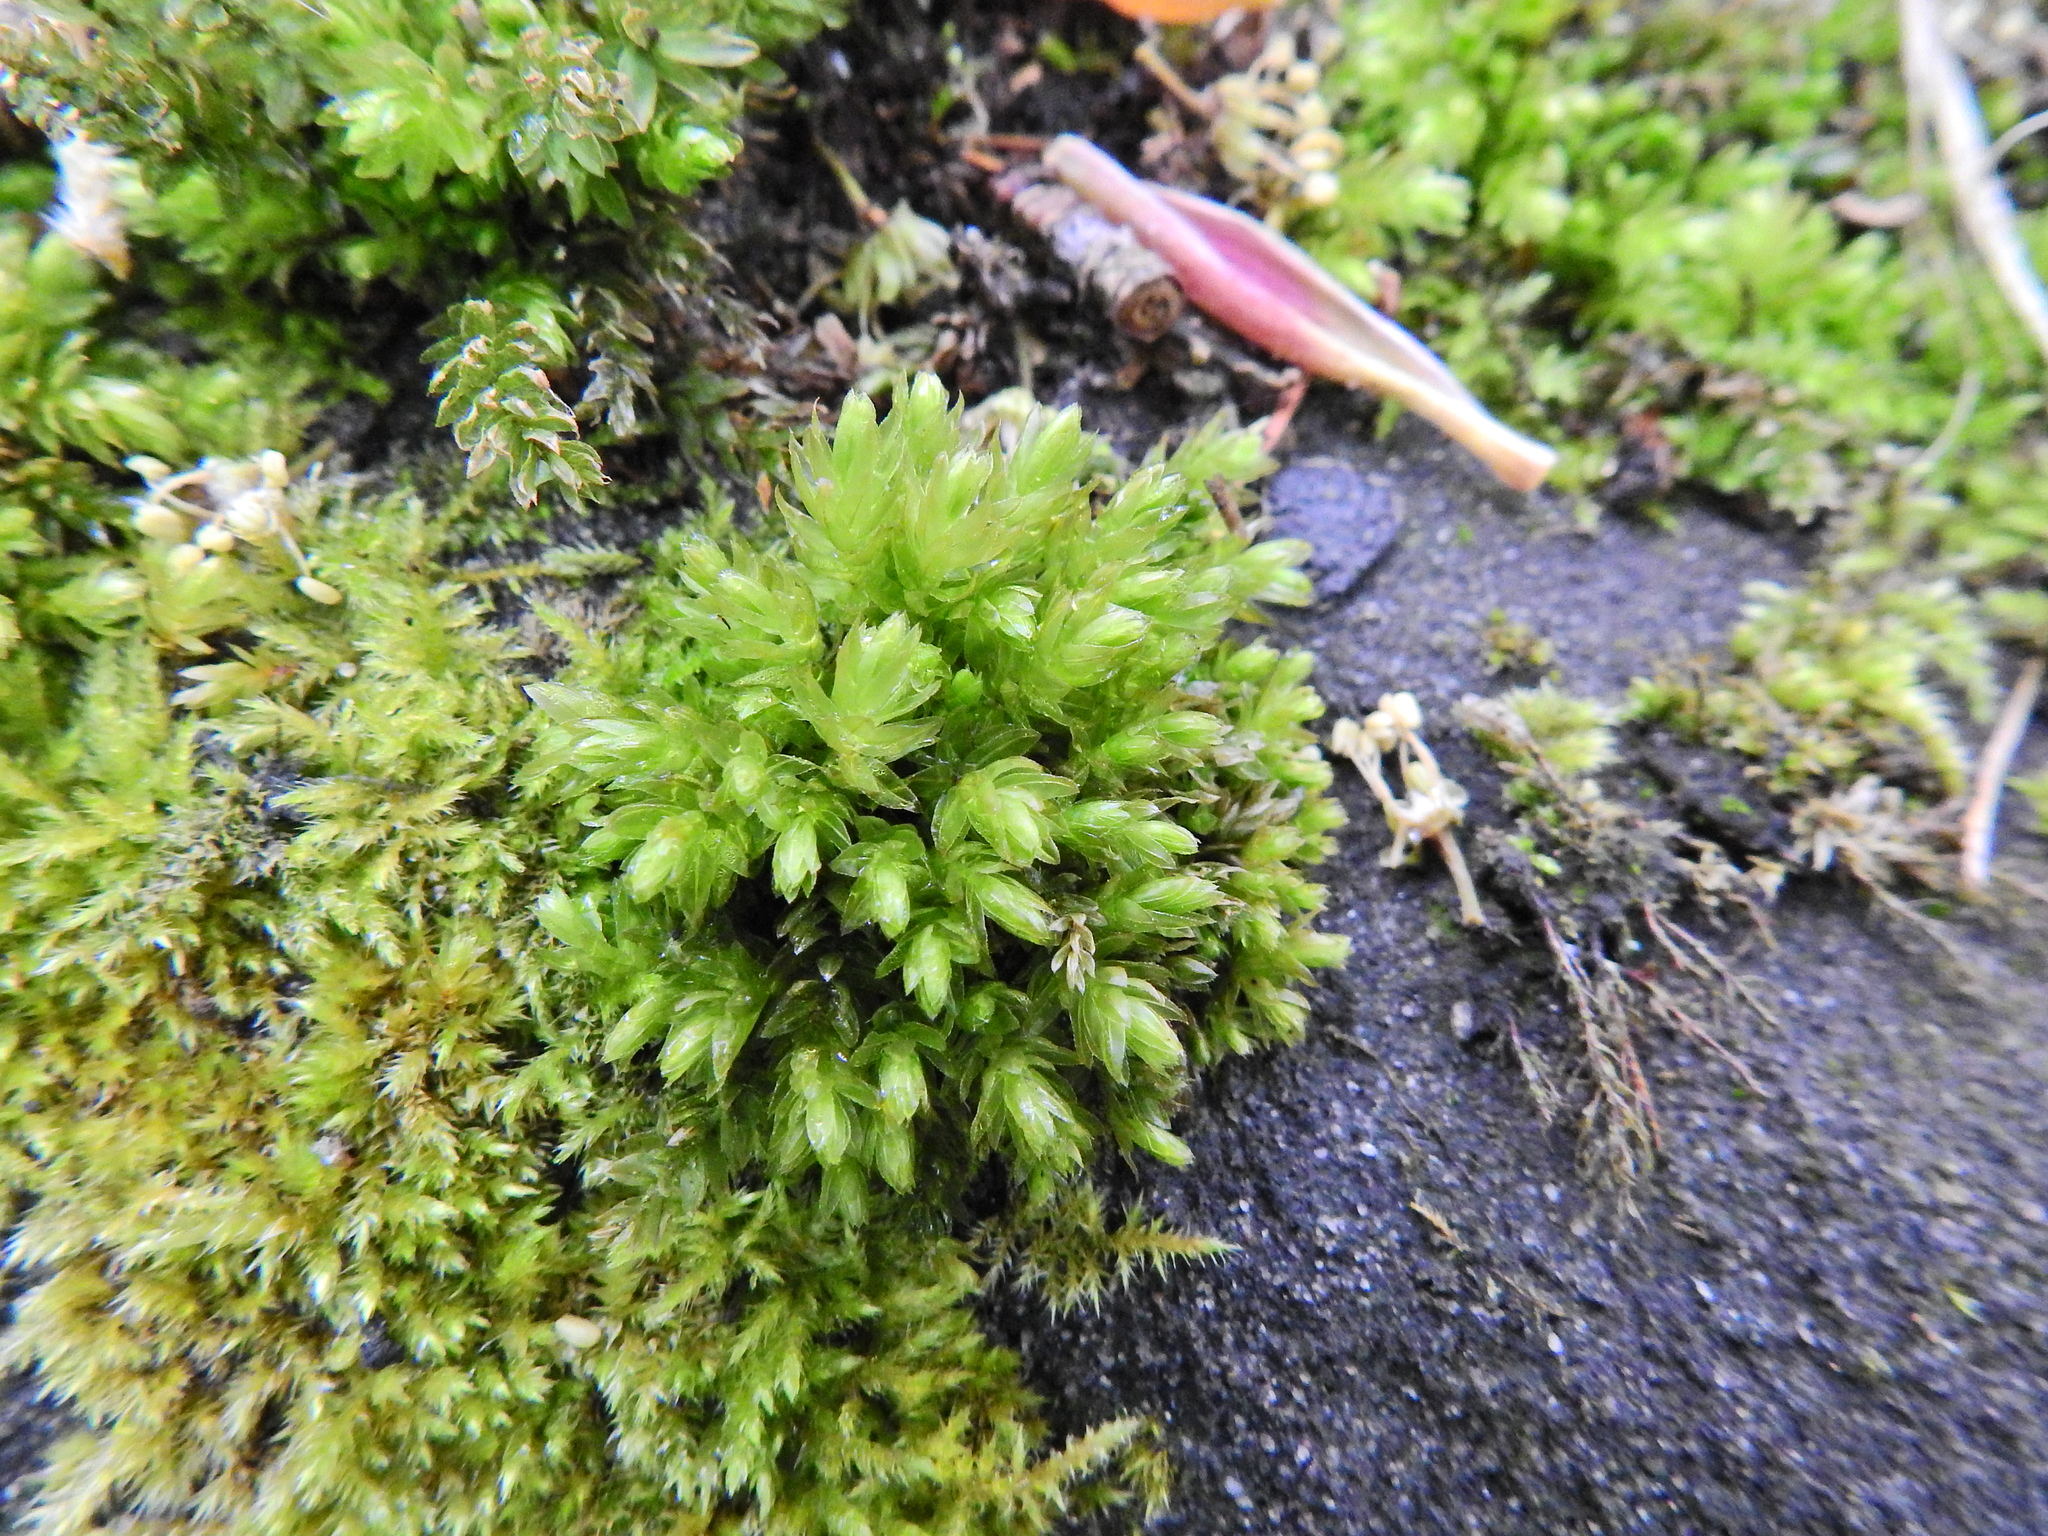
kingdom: Plantae
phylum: Bryophyta
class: Bryopsida
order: Bryales
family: Mniaceae
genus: Mnium
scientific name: Mnium hornum
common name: Swan's-neck leafy moss
